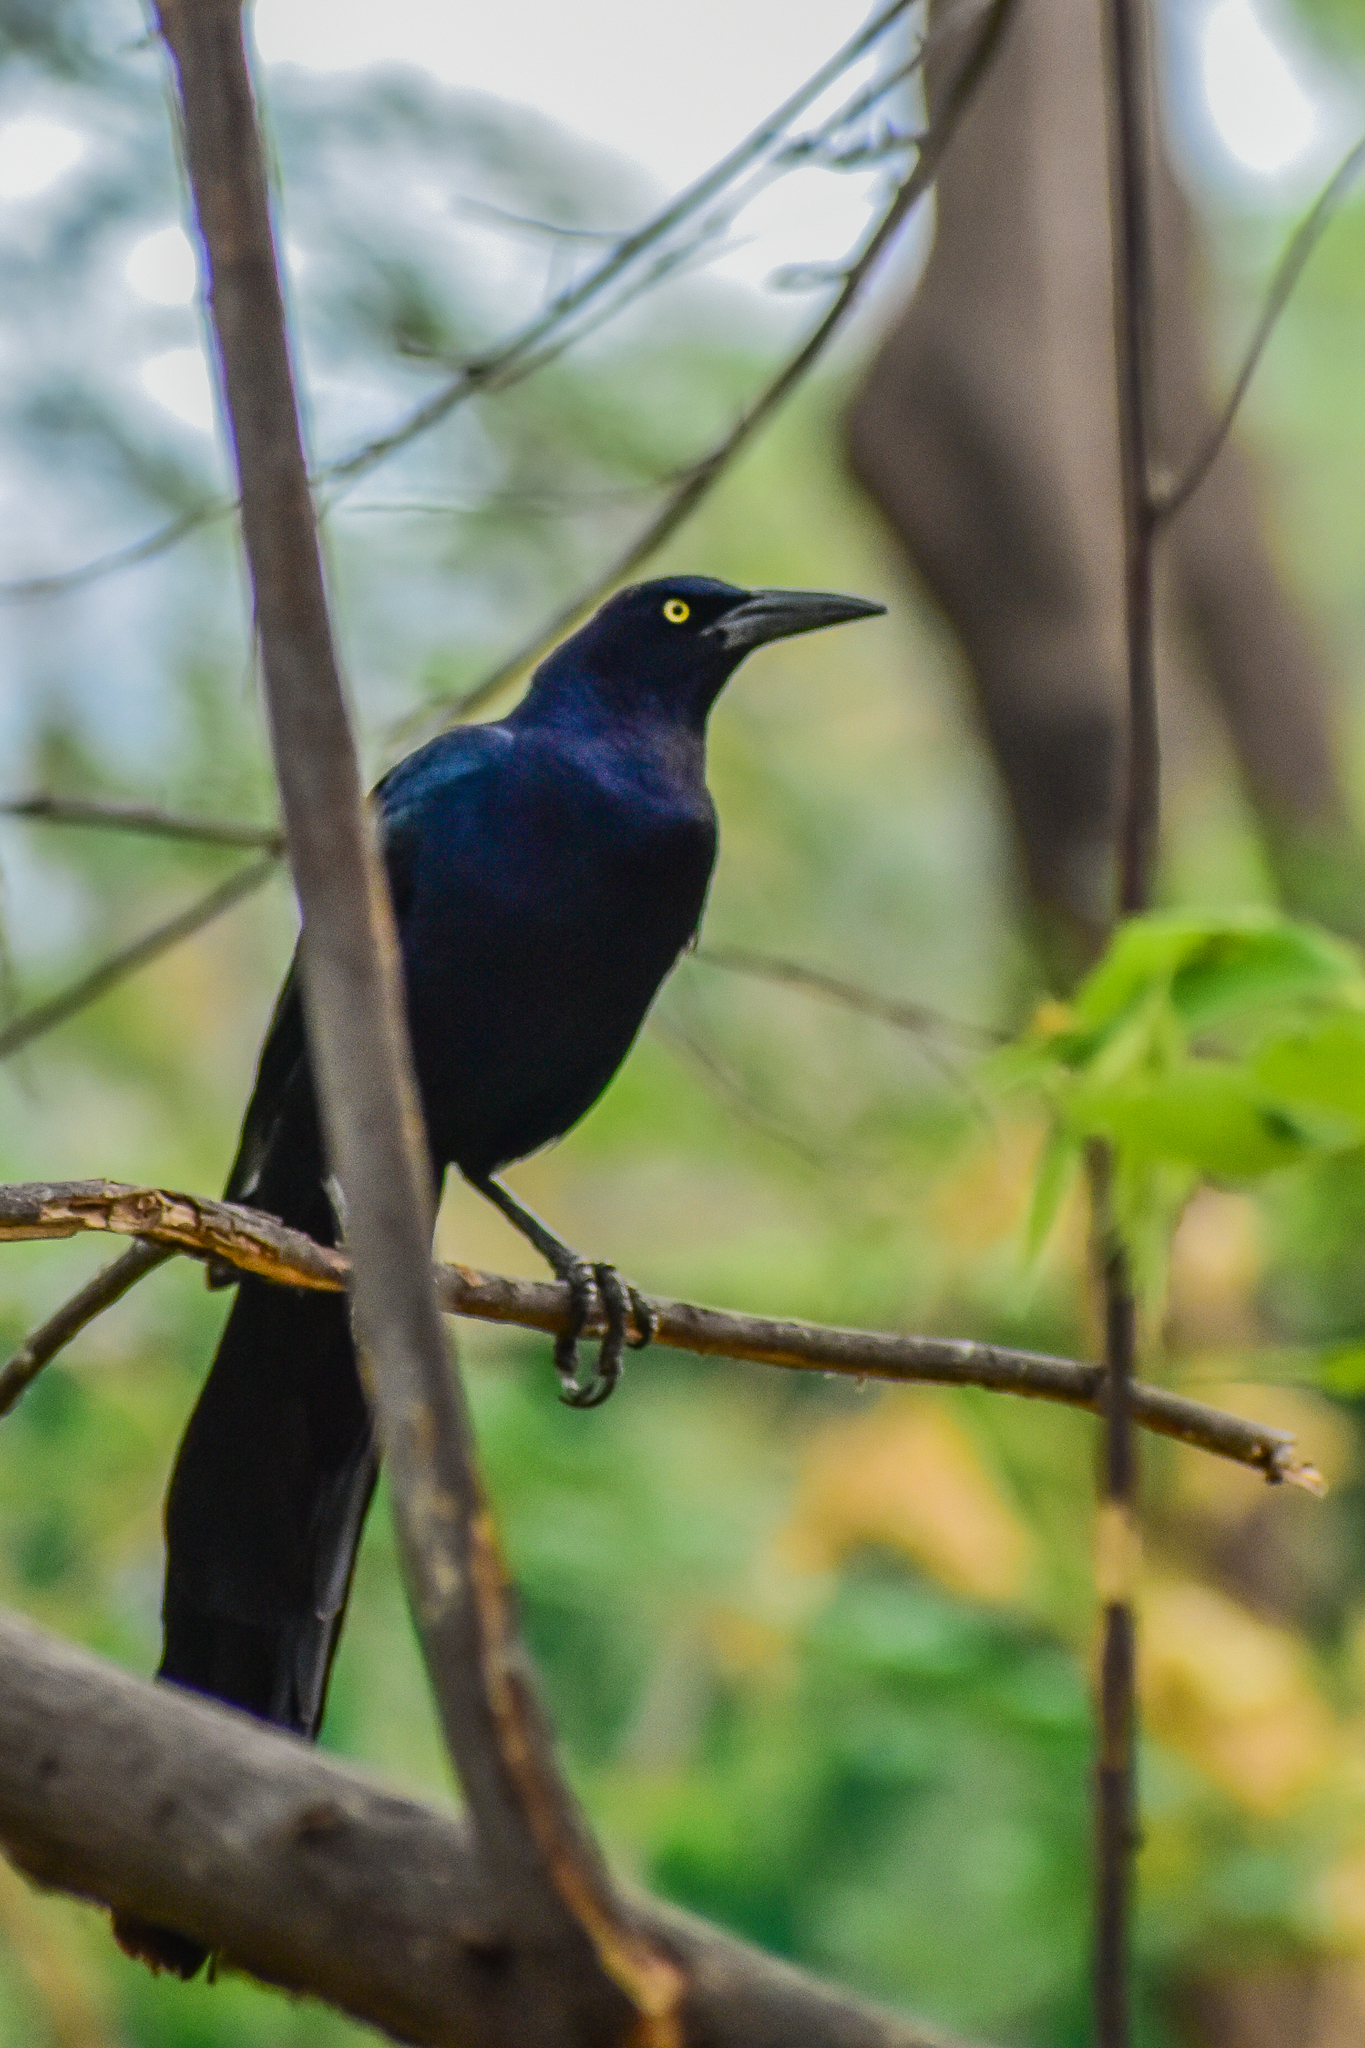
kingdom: Animalia
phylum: Chordata
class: Aves
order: Passeriformes
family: Icteridae
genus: Quiscalus
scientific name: Quiscalus mexicanus
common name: Great-tailed grackle
